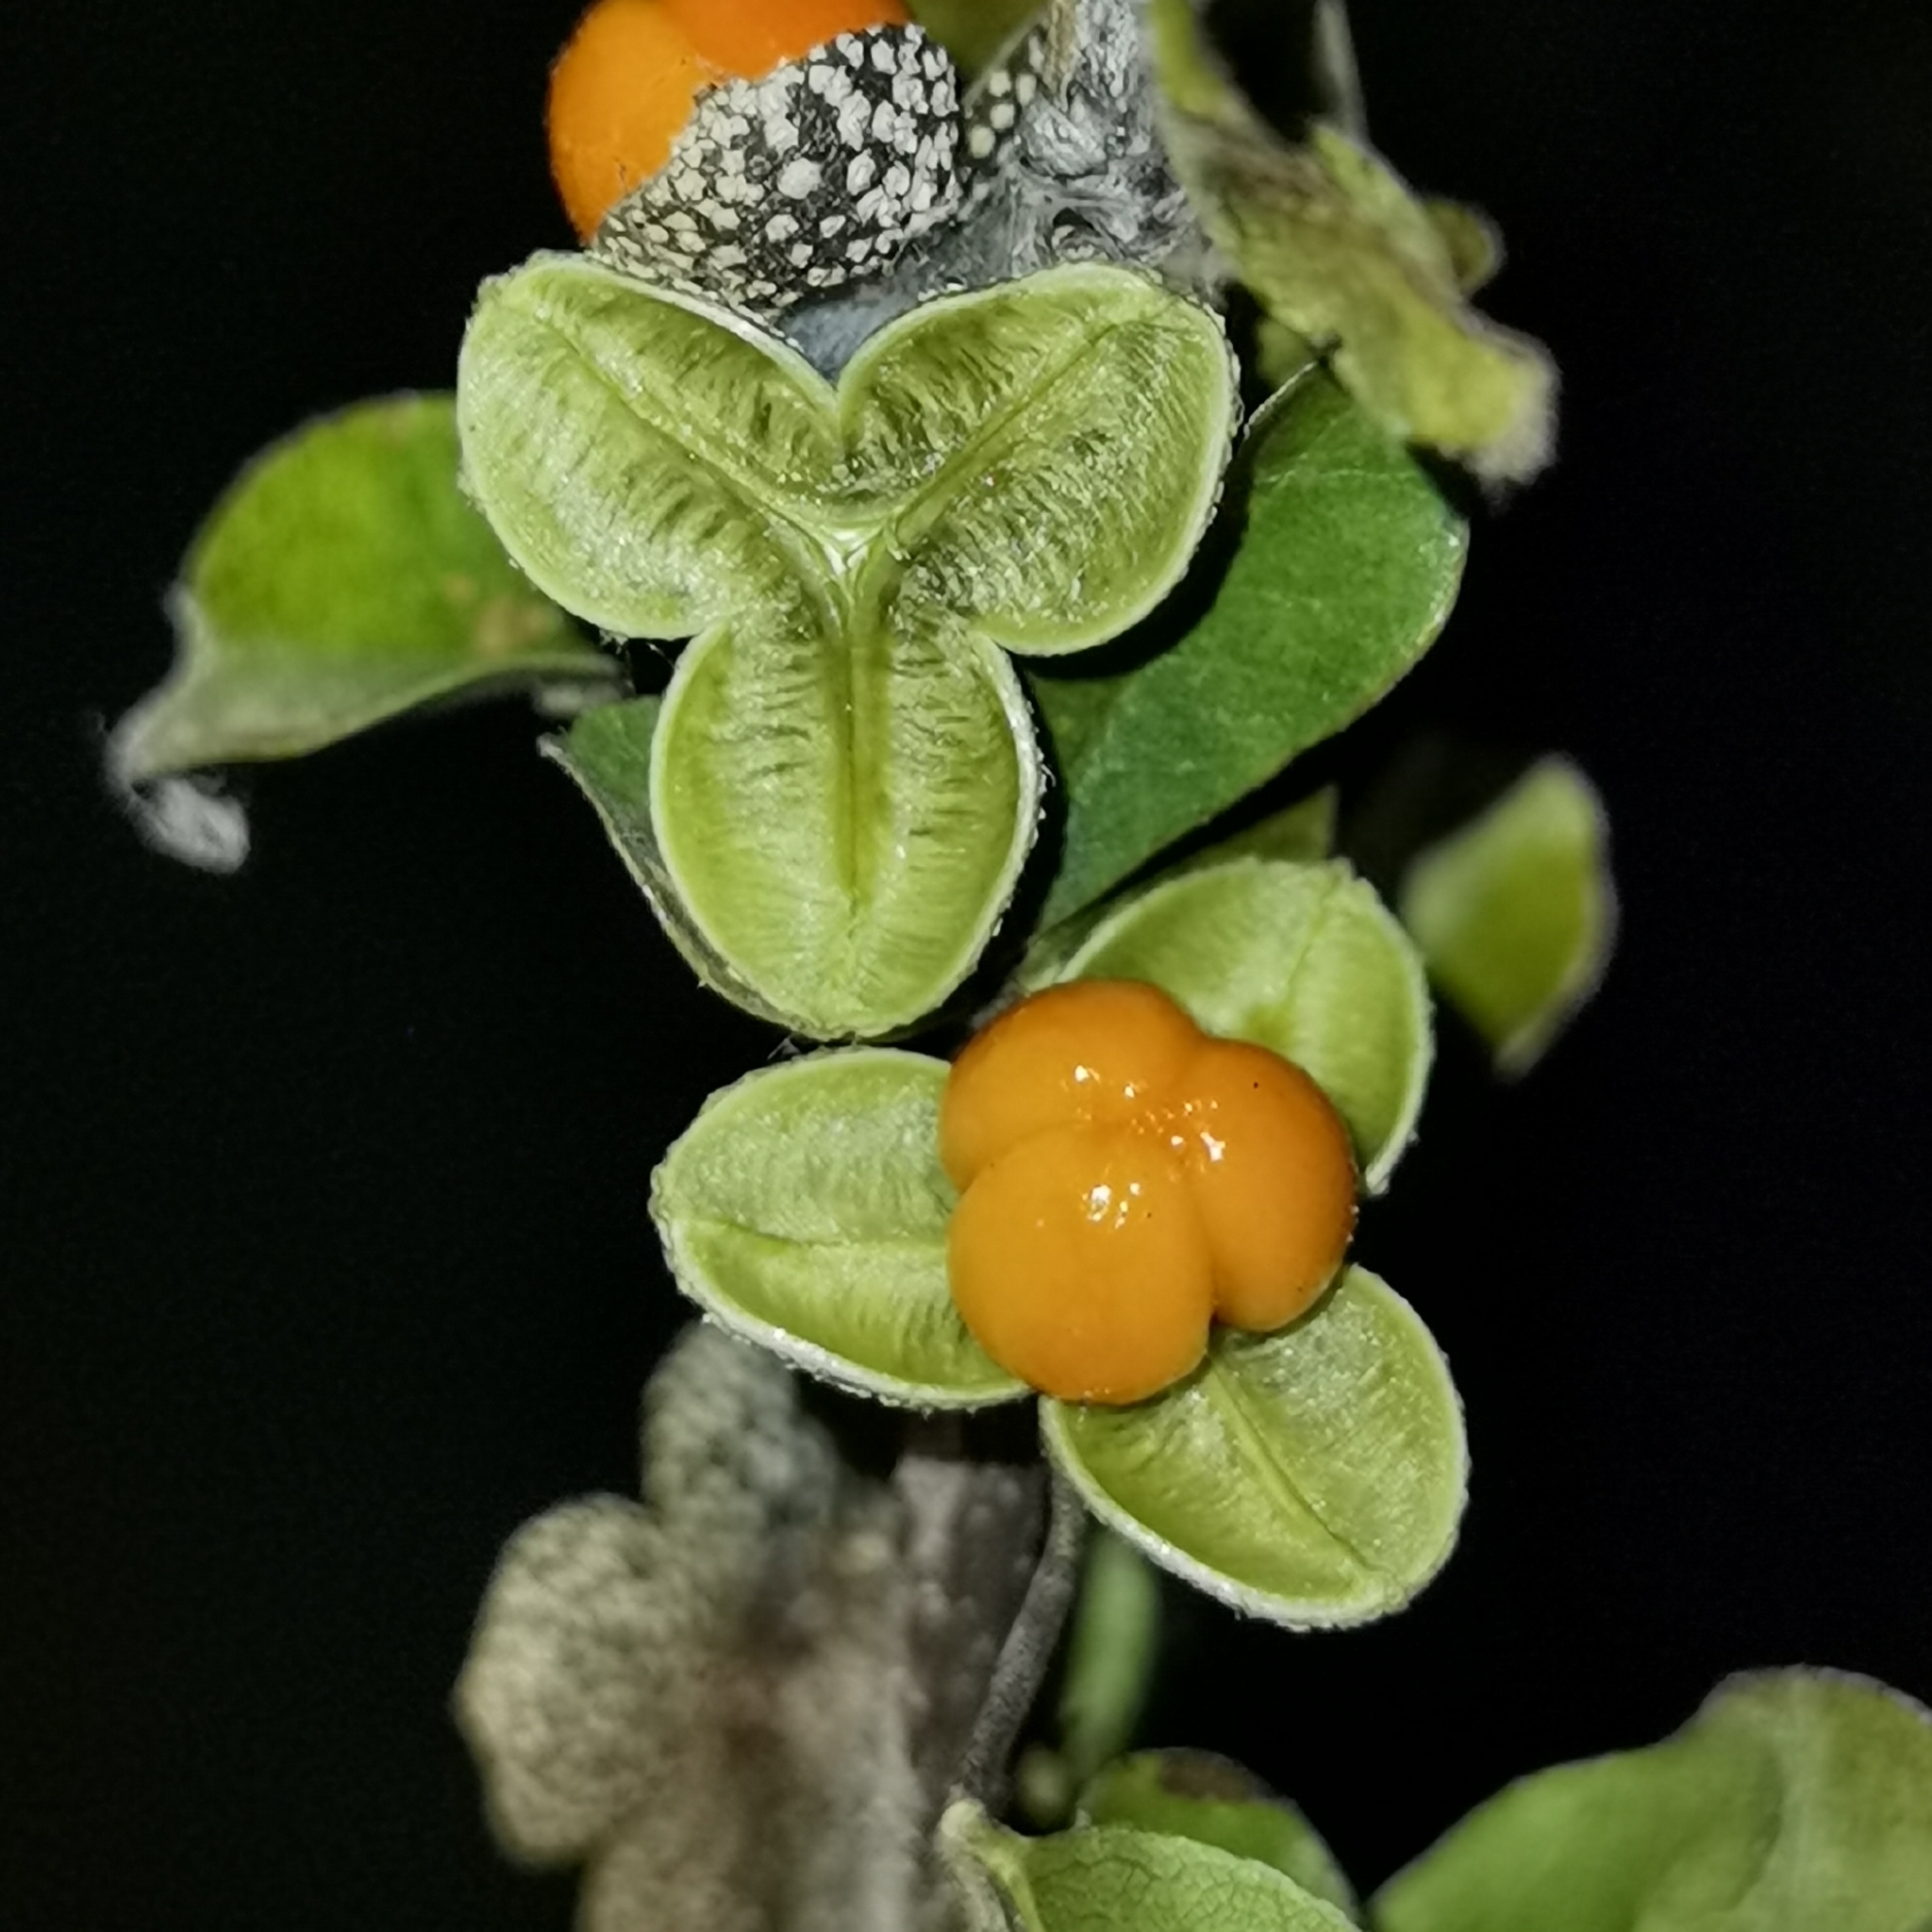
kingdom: Plantae
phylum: Tracheophyta
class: Magnoliopsida
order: Sapindales
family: Meliaceae
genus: Trichilia
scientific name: Trichilia trifolia
